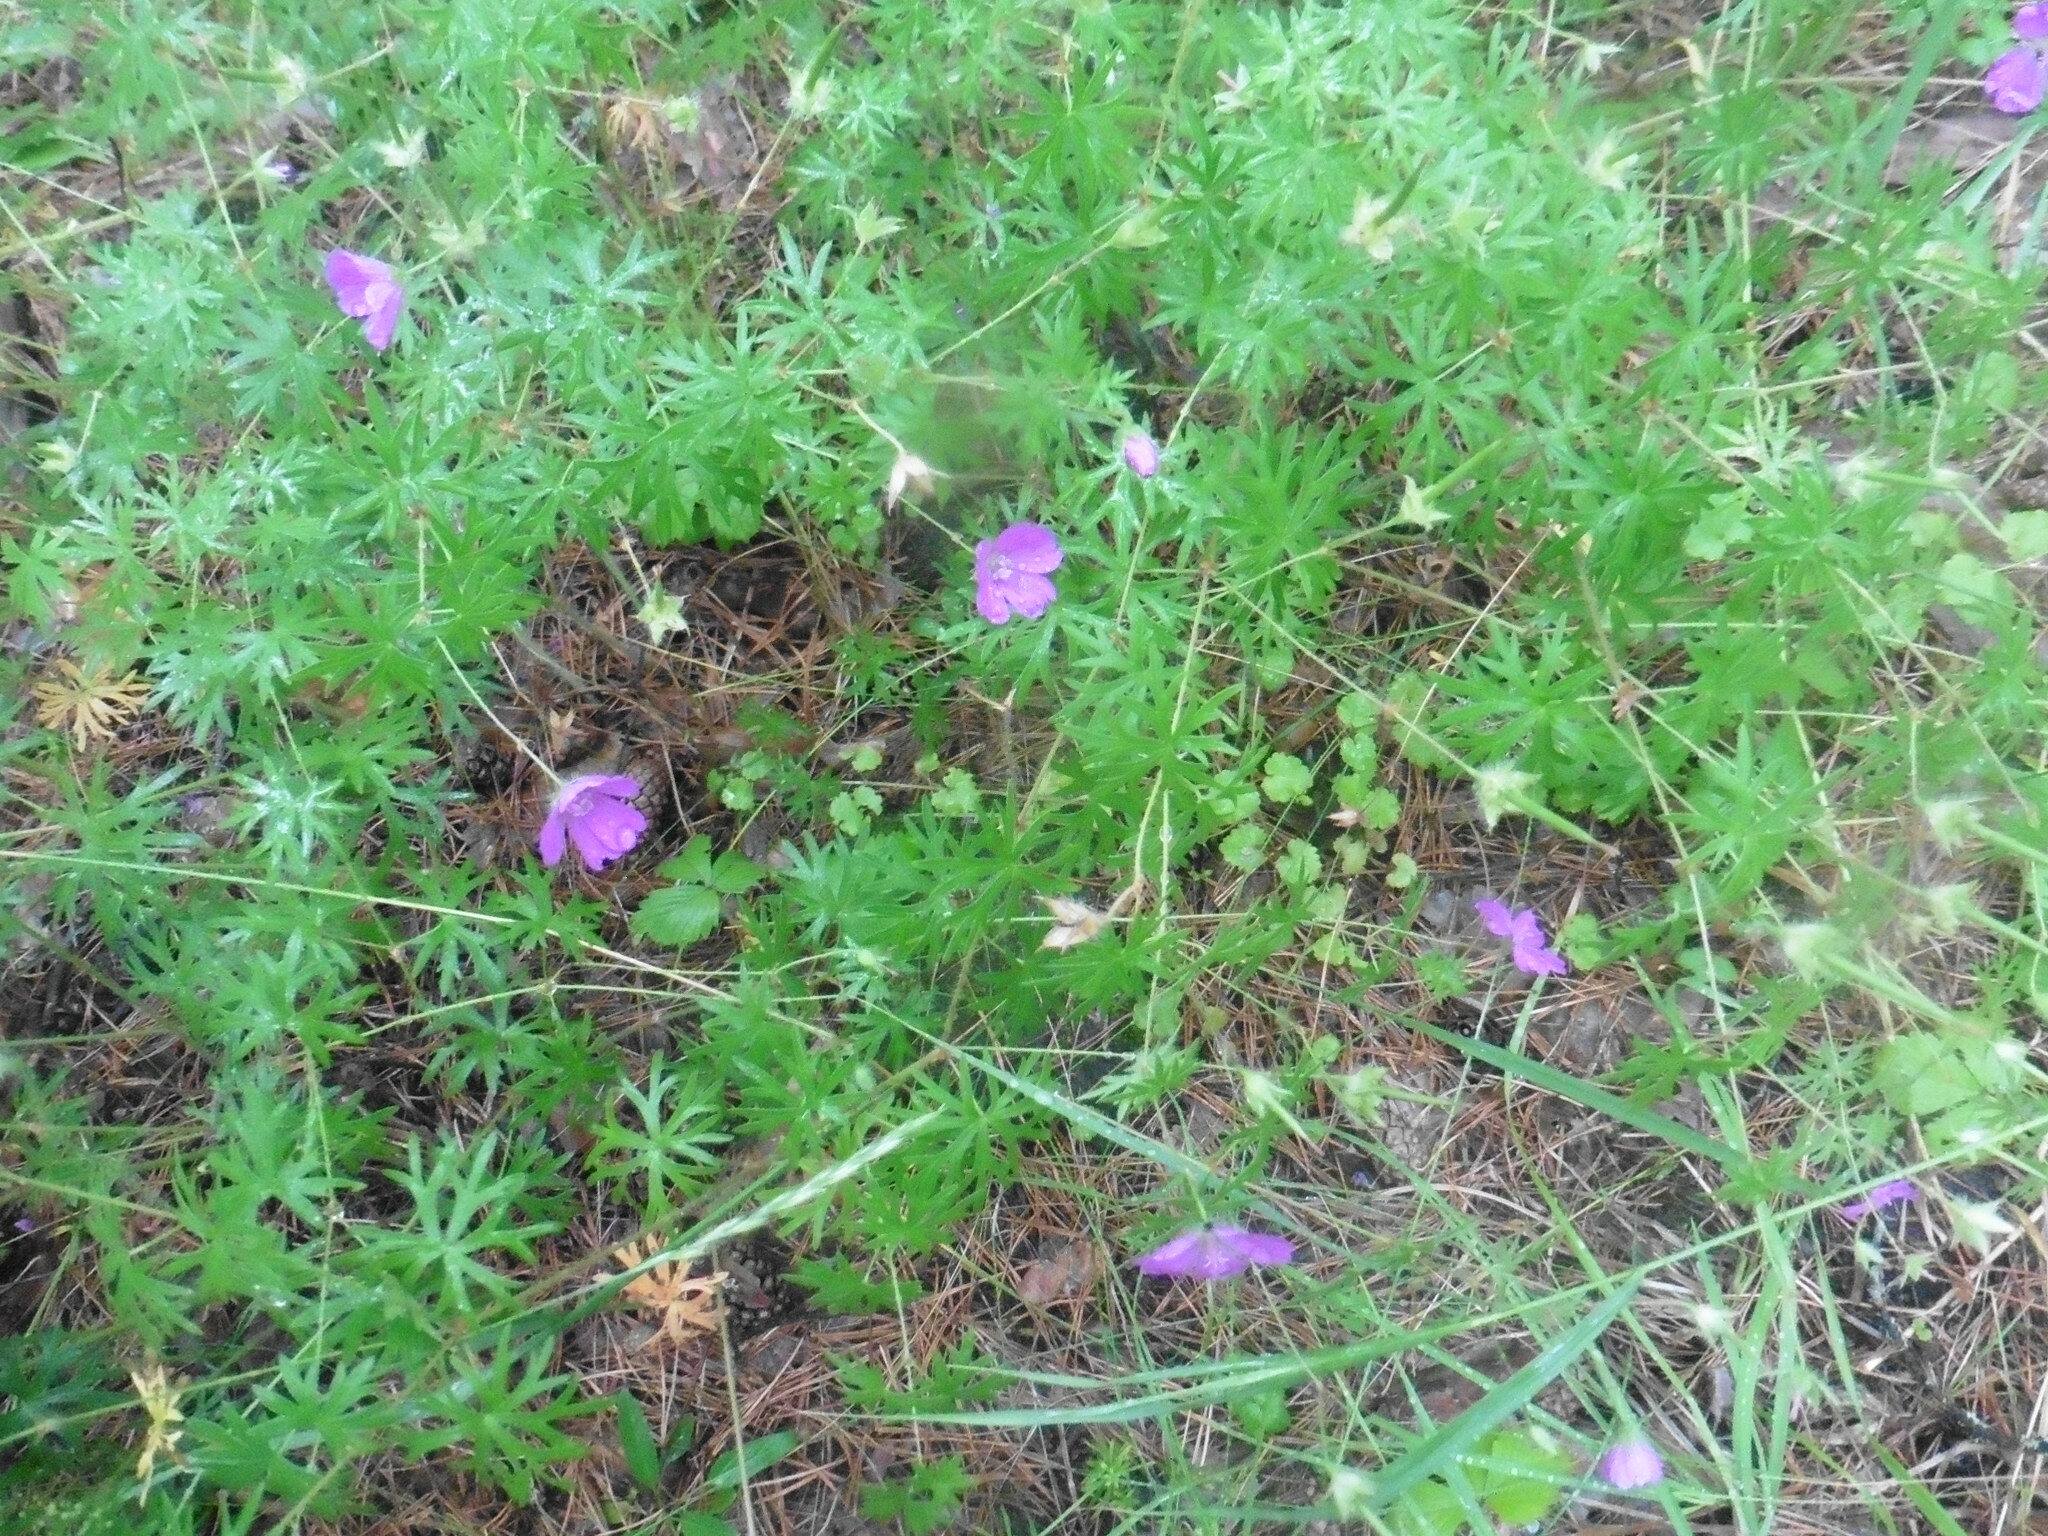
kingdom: Plantae
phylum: Tracheophyta
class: Magnoliopsida
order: Geraniales
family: Geraniaceae
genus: Geranium
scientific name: Geranium sanguineum
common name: Bloody crane's-bill
